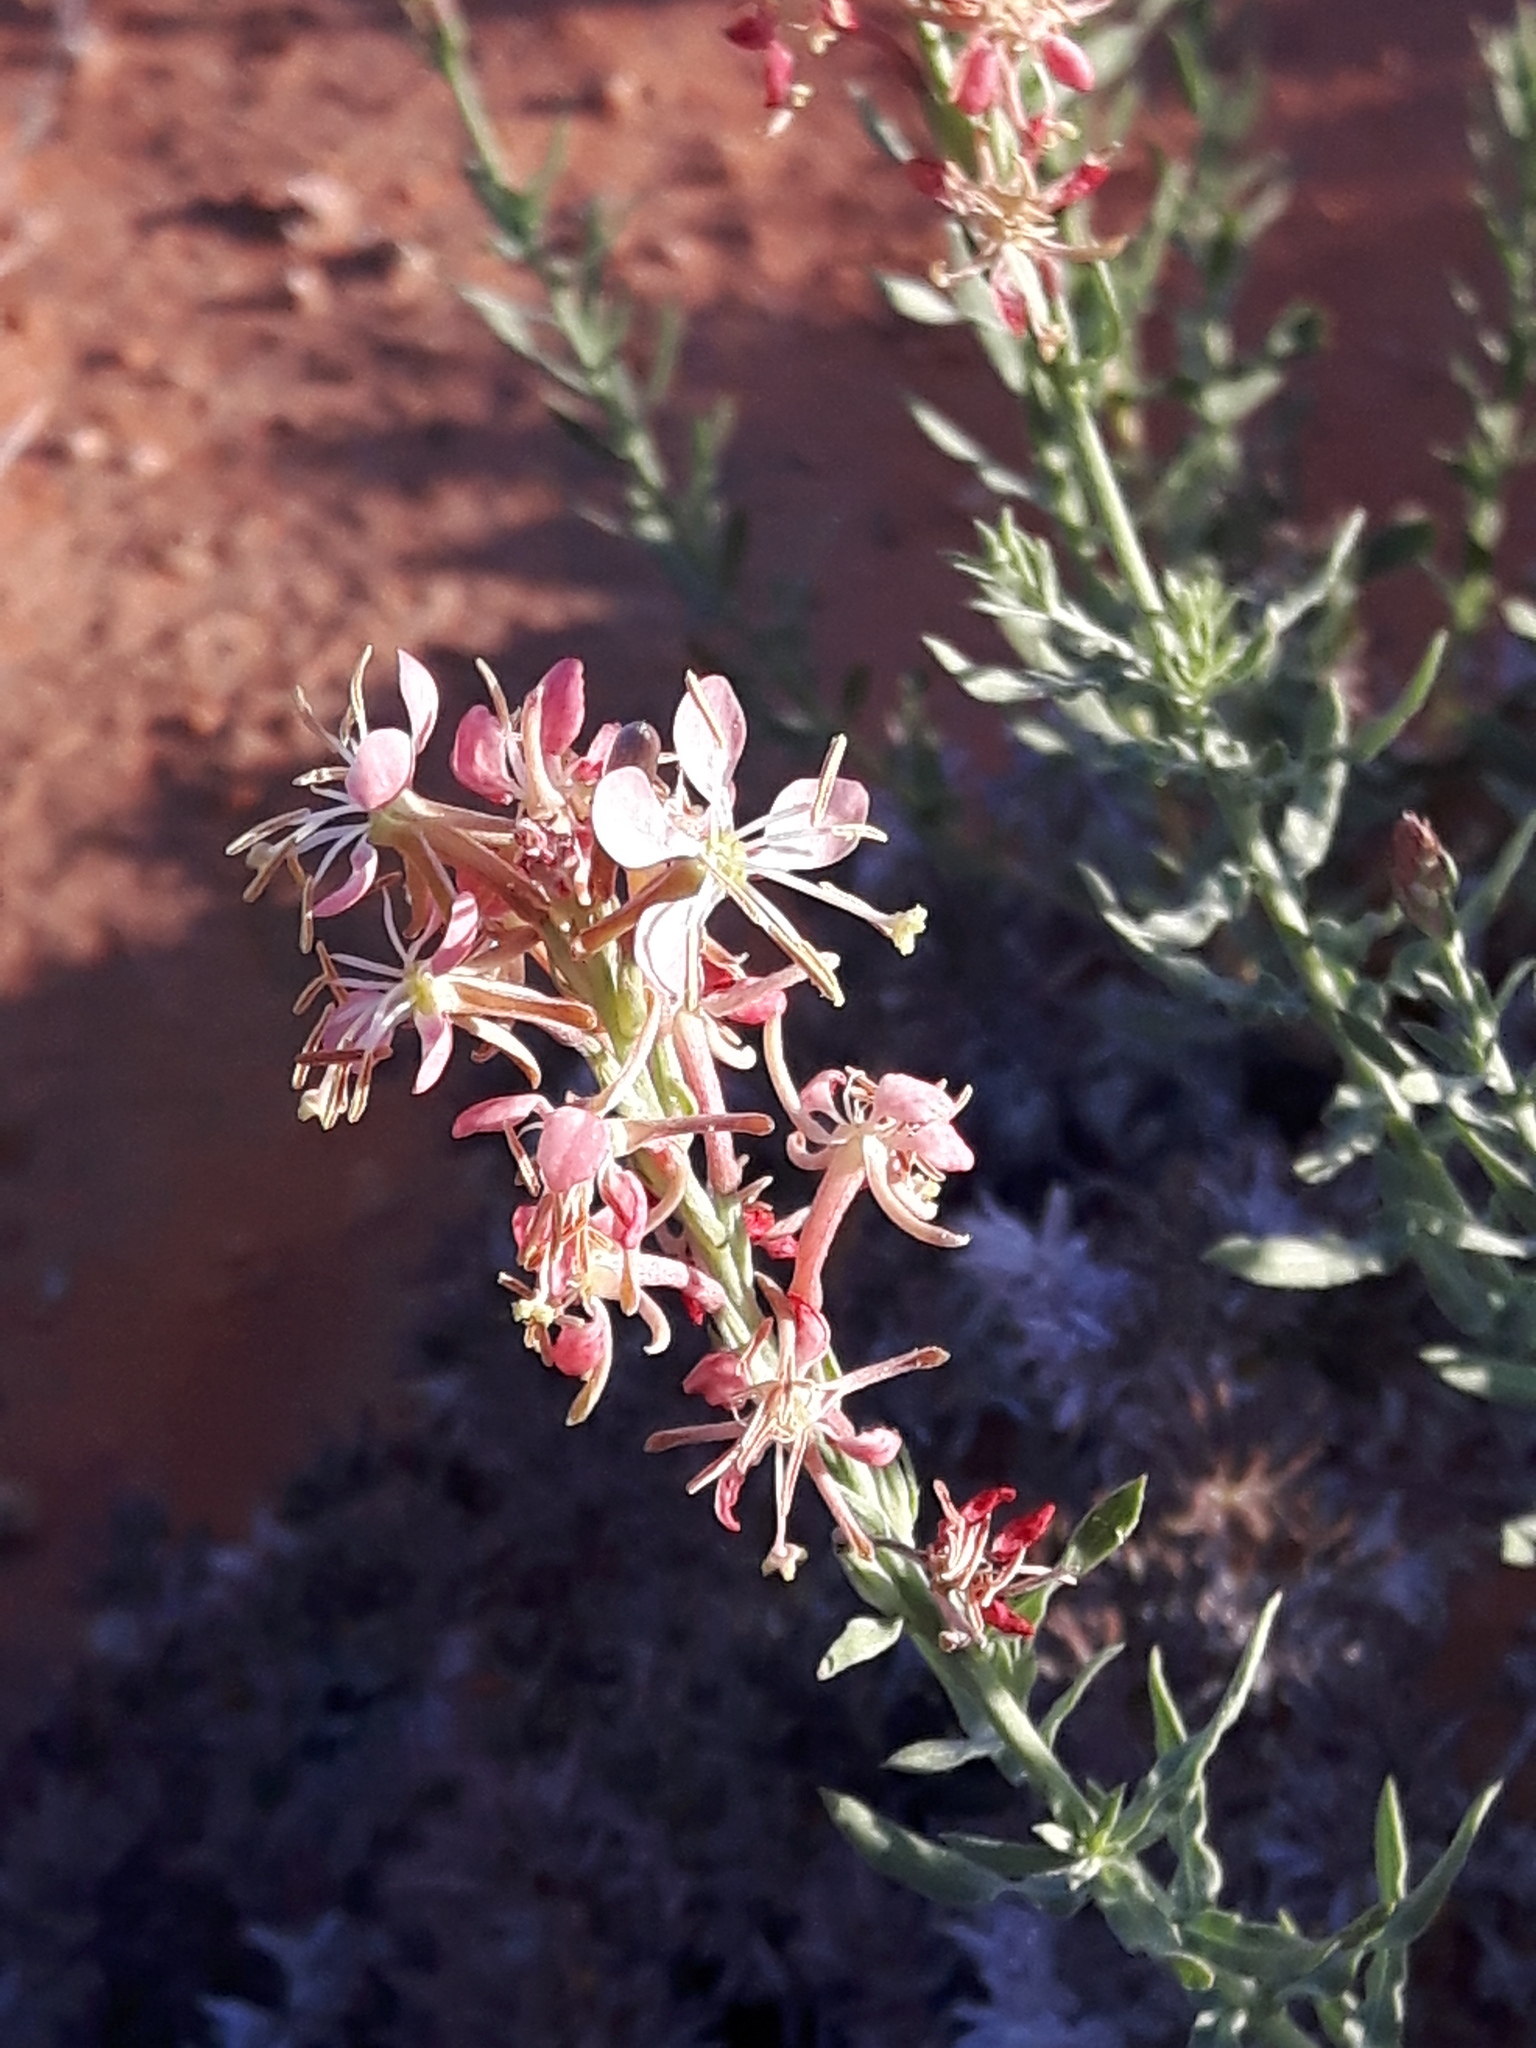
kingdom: Plantae
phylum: Tracheophyta
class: Magnoliopsida
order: Myrtales
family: Onagraceae
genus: Oenothera
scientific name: Oenothera suffrutescens
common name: Scarlet beeblossom
